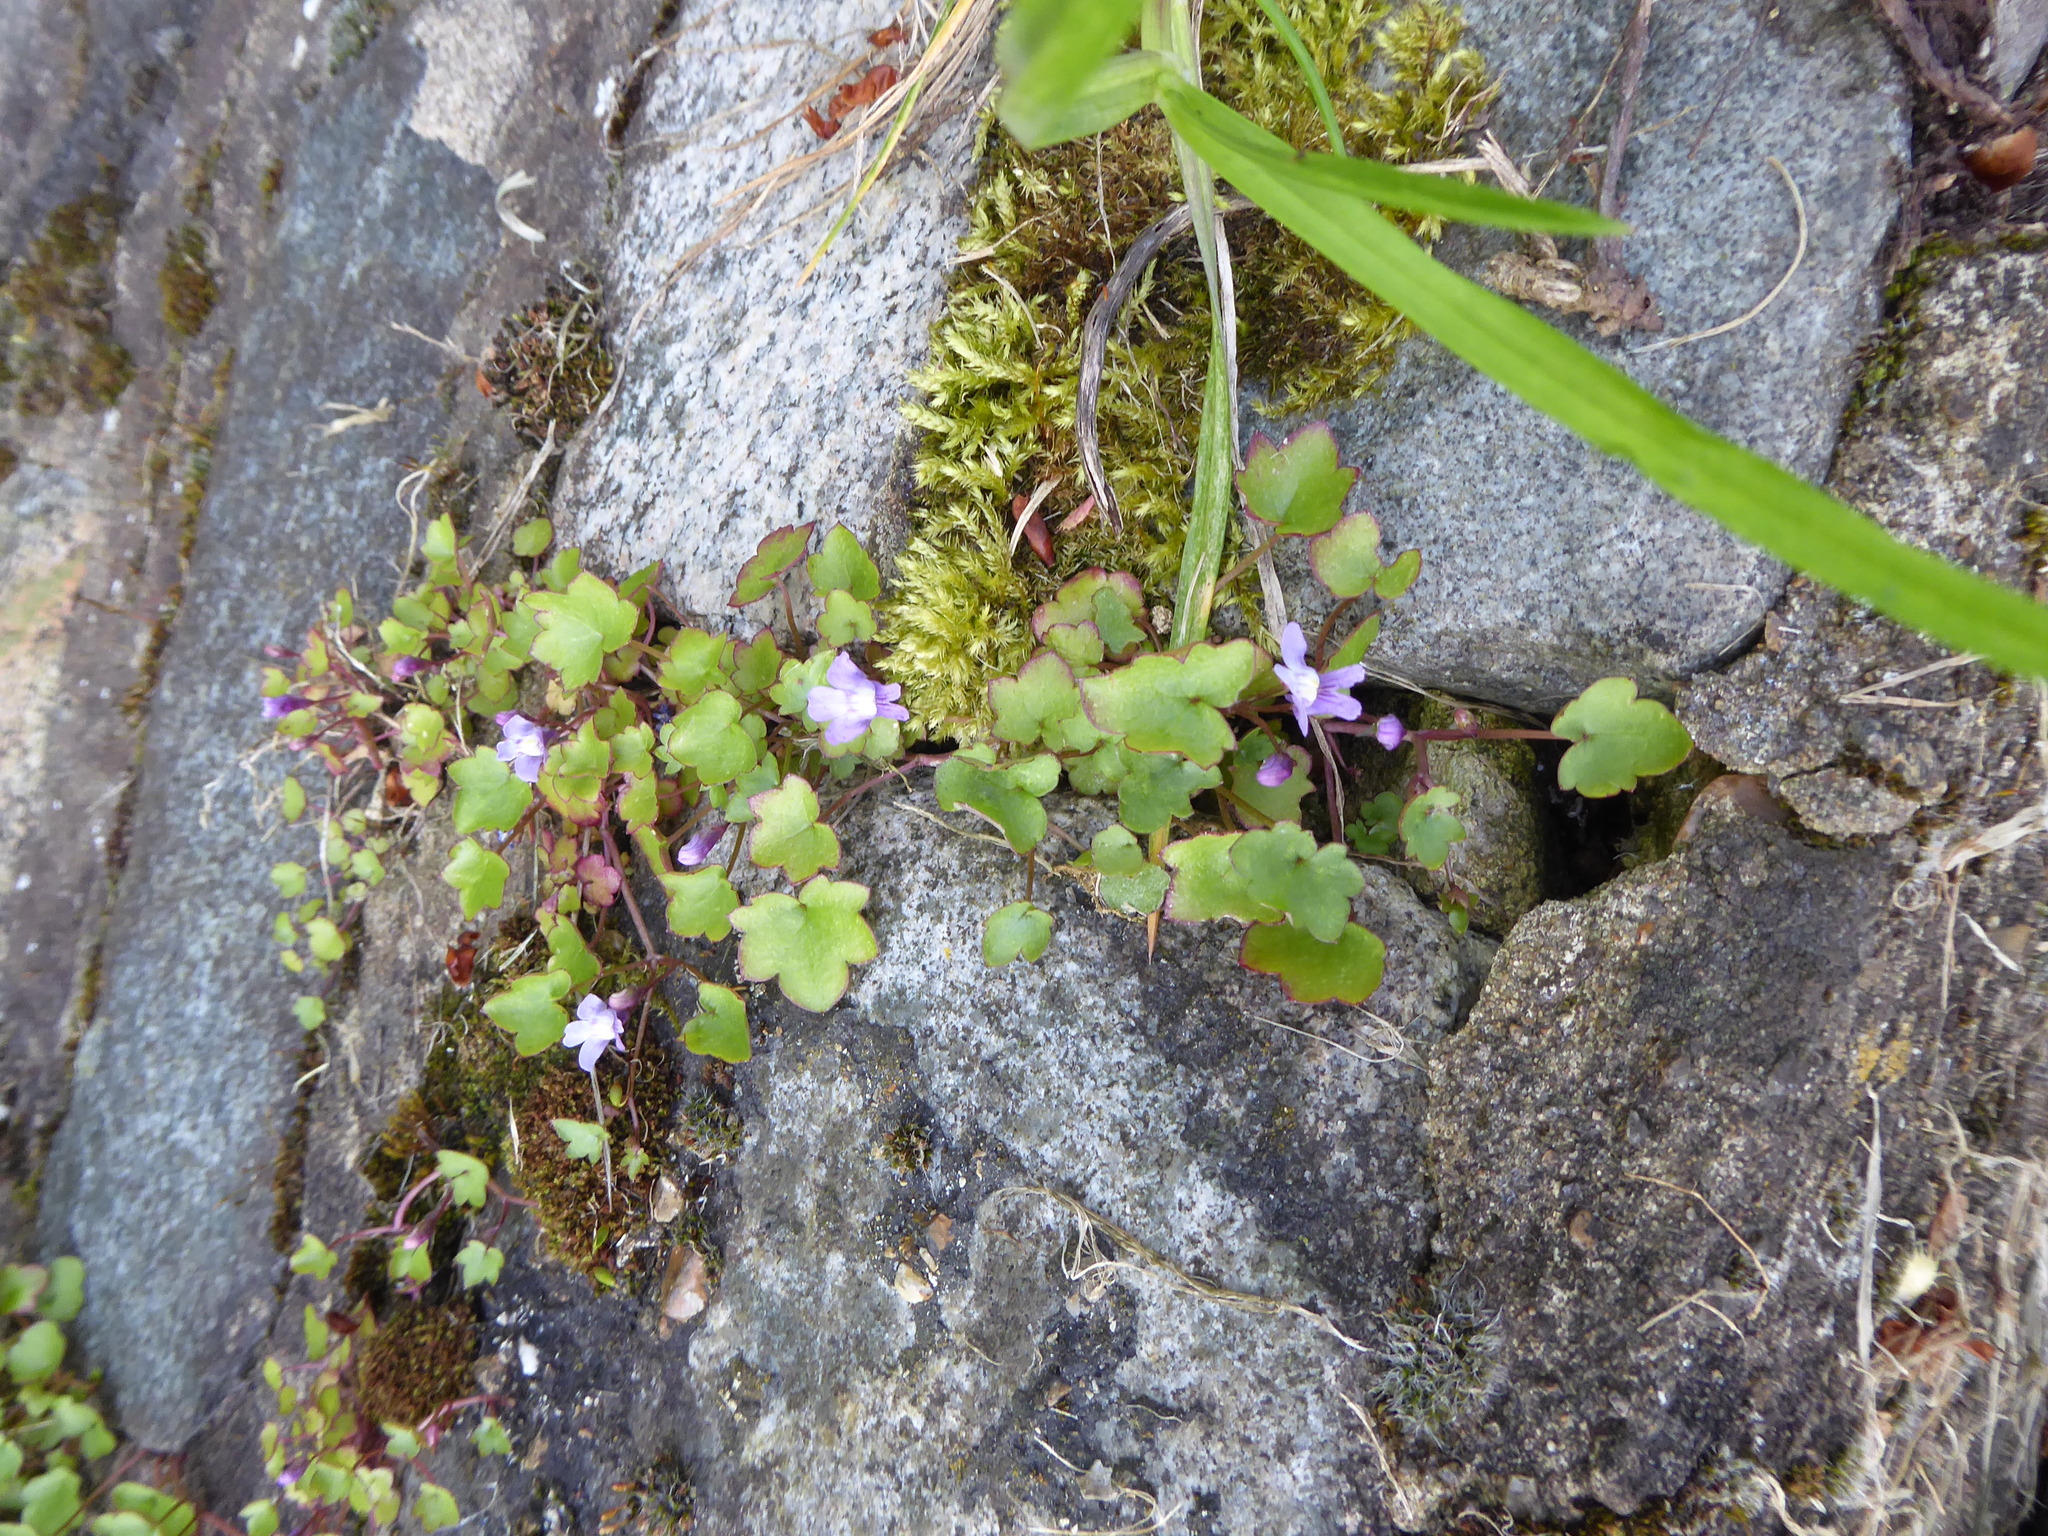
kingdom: Plantae
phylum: Tracheophyta
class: Magnoliopsida
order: Lamiales
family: Plantaginaceae
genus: Cymbalaria
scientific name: Cymbalaria muralis
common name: Ivy-leaved toadflax
